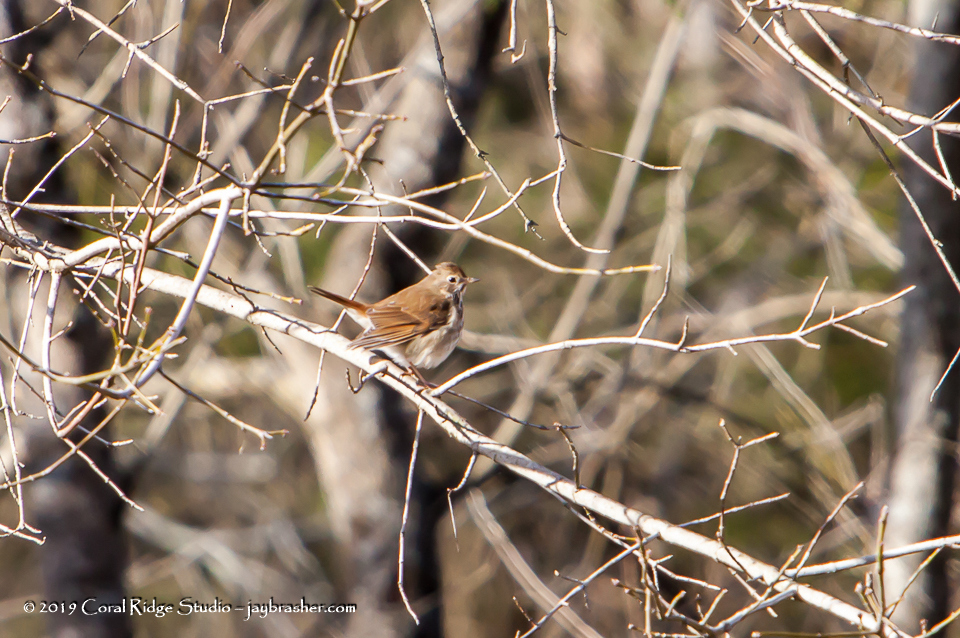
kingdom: Animalia
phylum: Chordata
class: Aves
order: Passeriformes
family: Turdidae
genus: Catharus
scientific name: Catharus guttatus
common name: Hermit thrush
